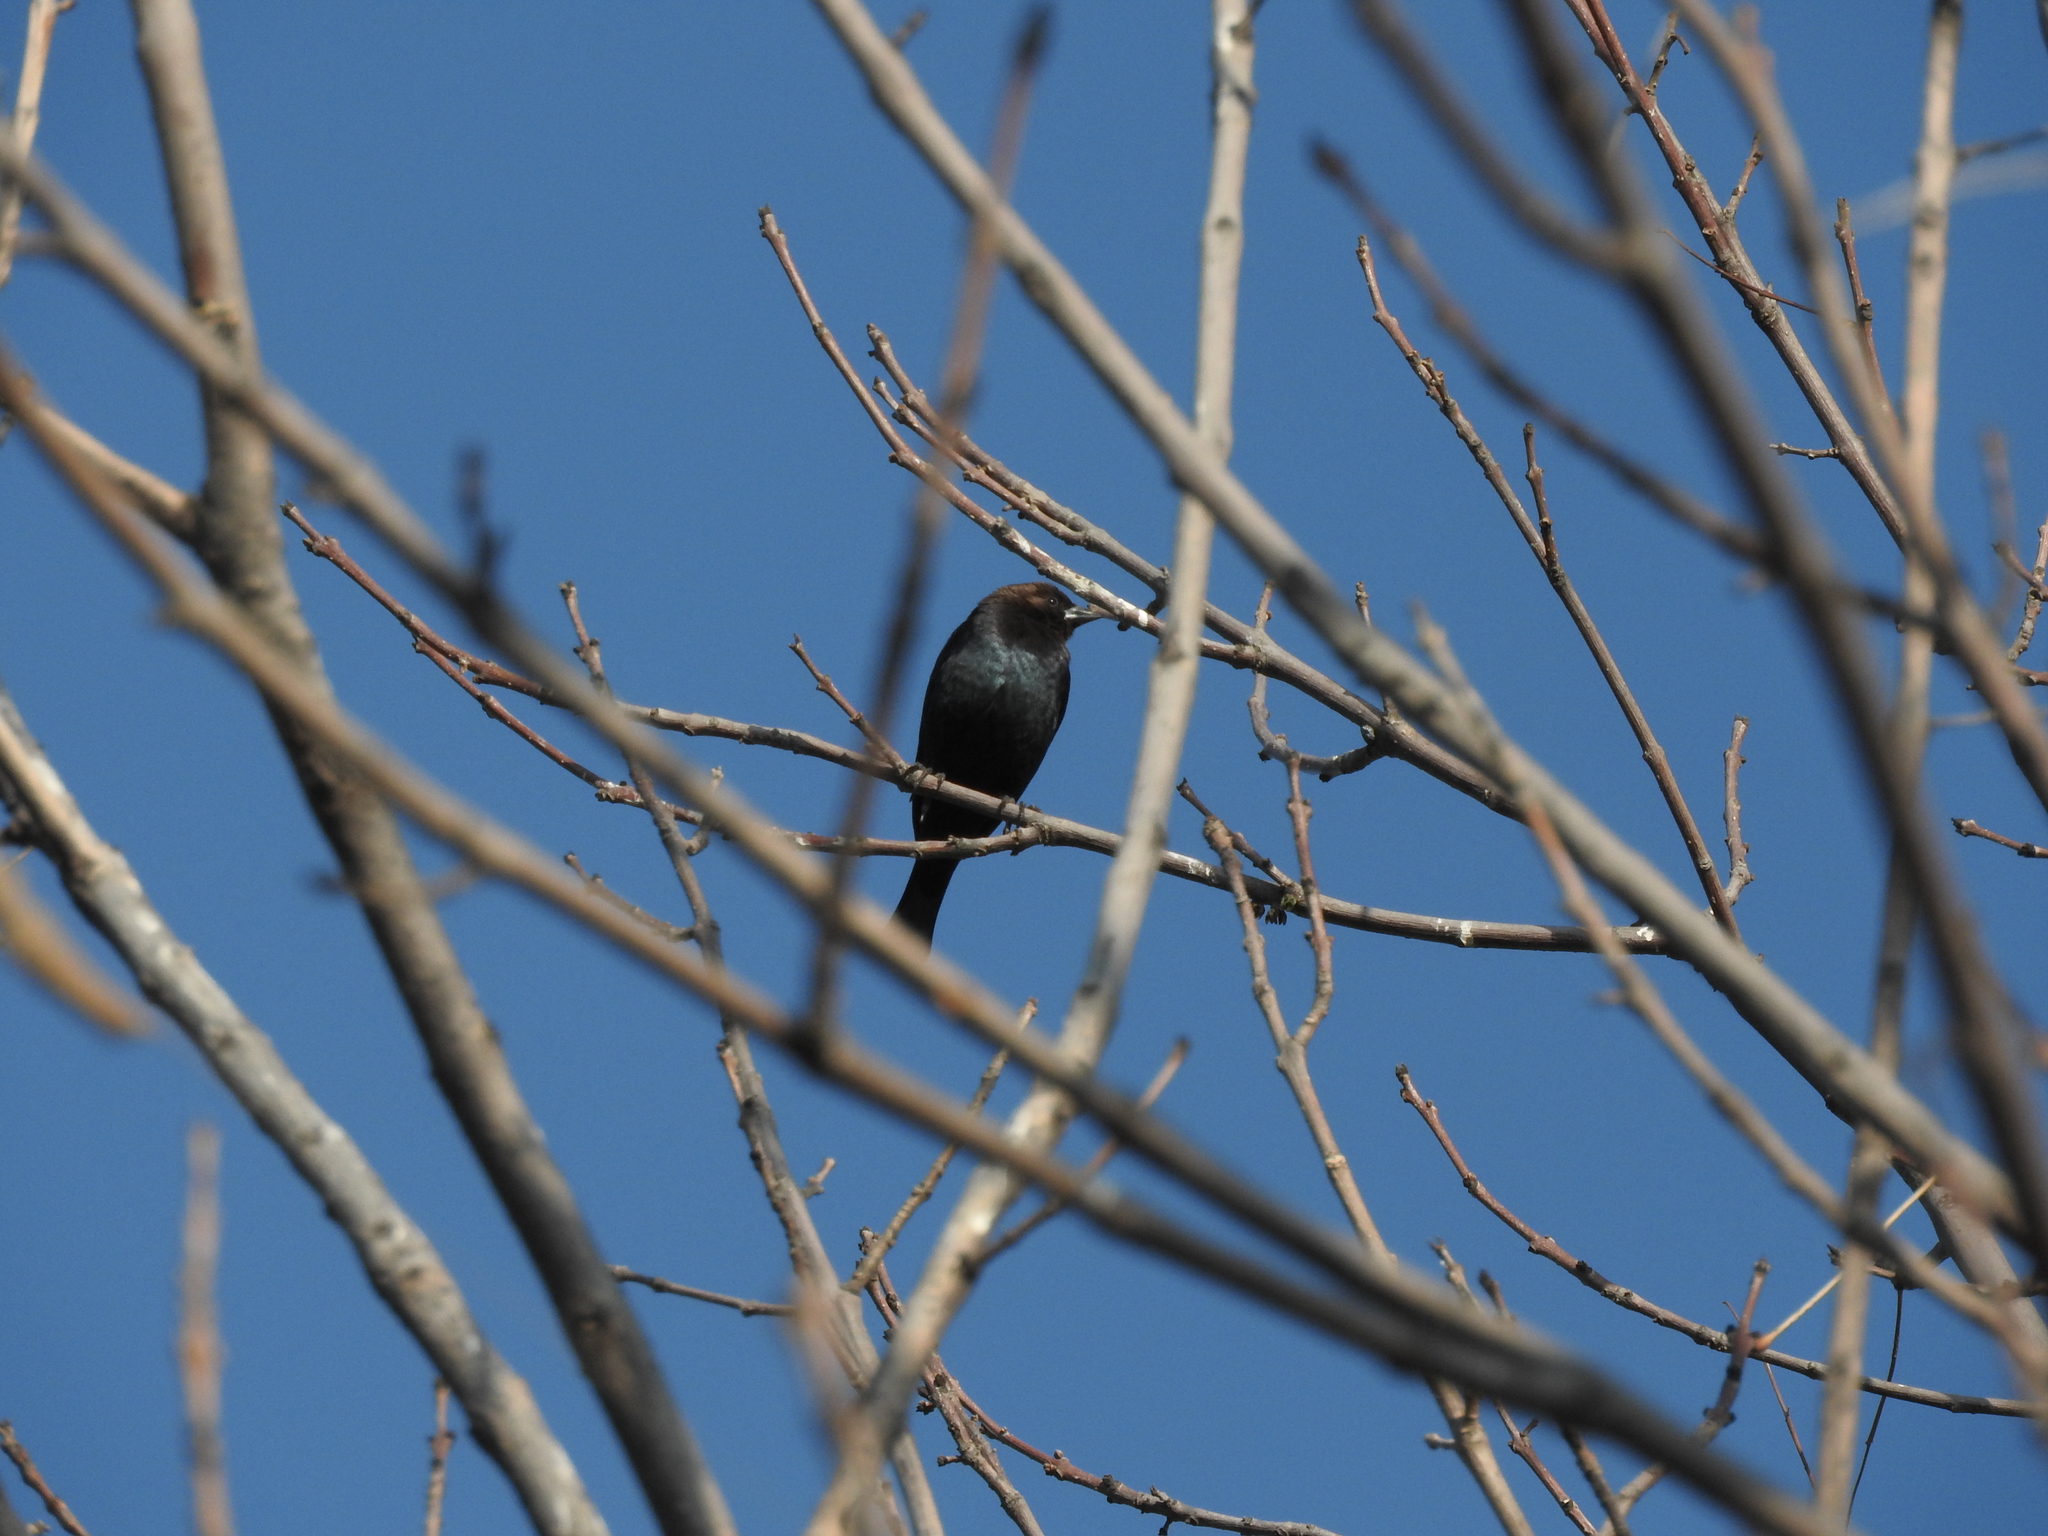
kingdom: Animalia
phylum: Chordata
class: Aves
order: Passeriformes
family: Icteridae
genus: Molothrus
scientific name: Molothrus ater
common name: Brown-headed cowbird
